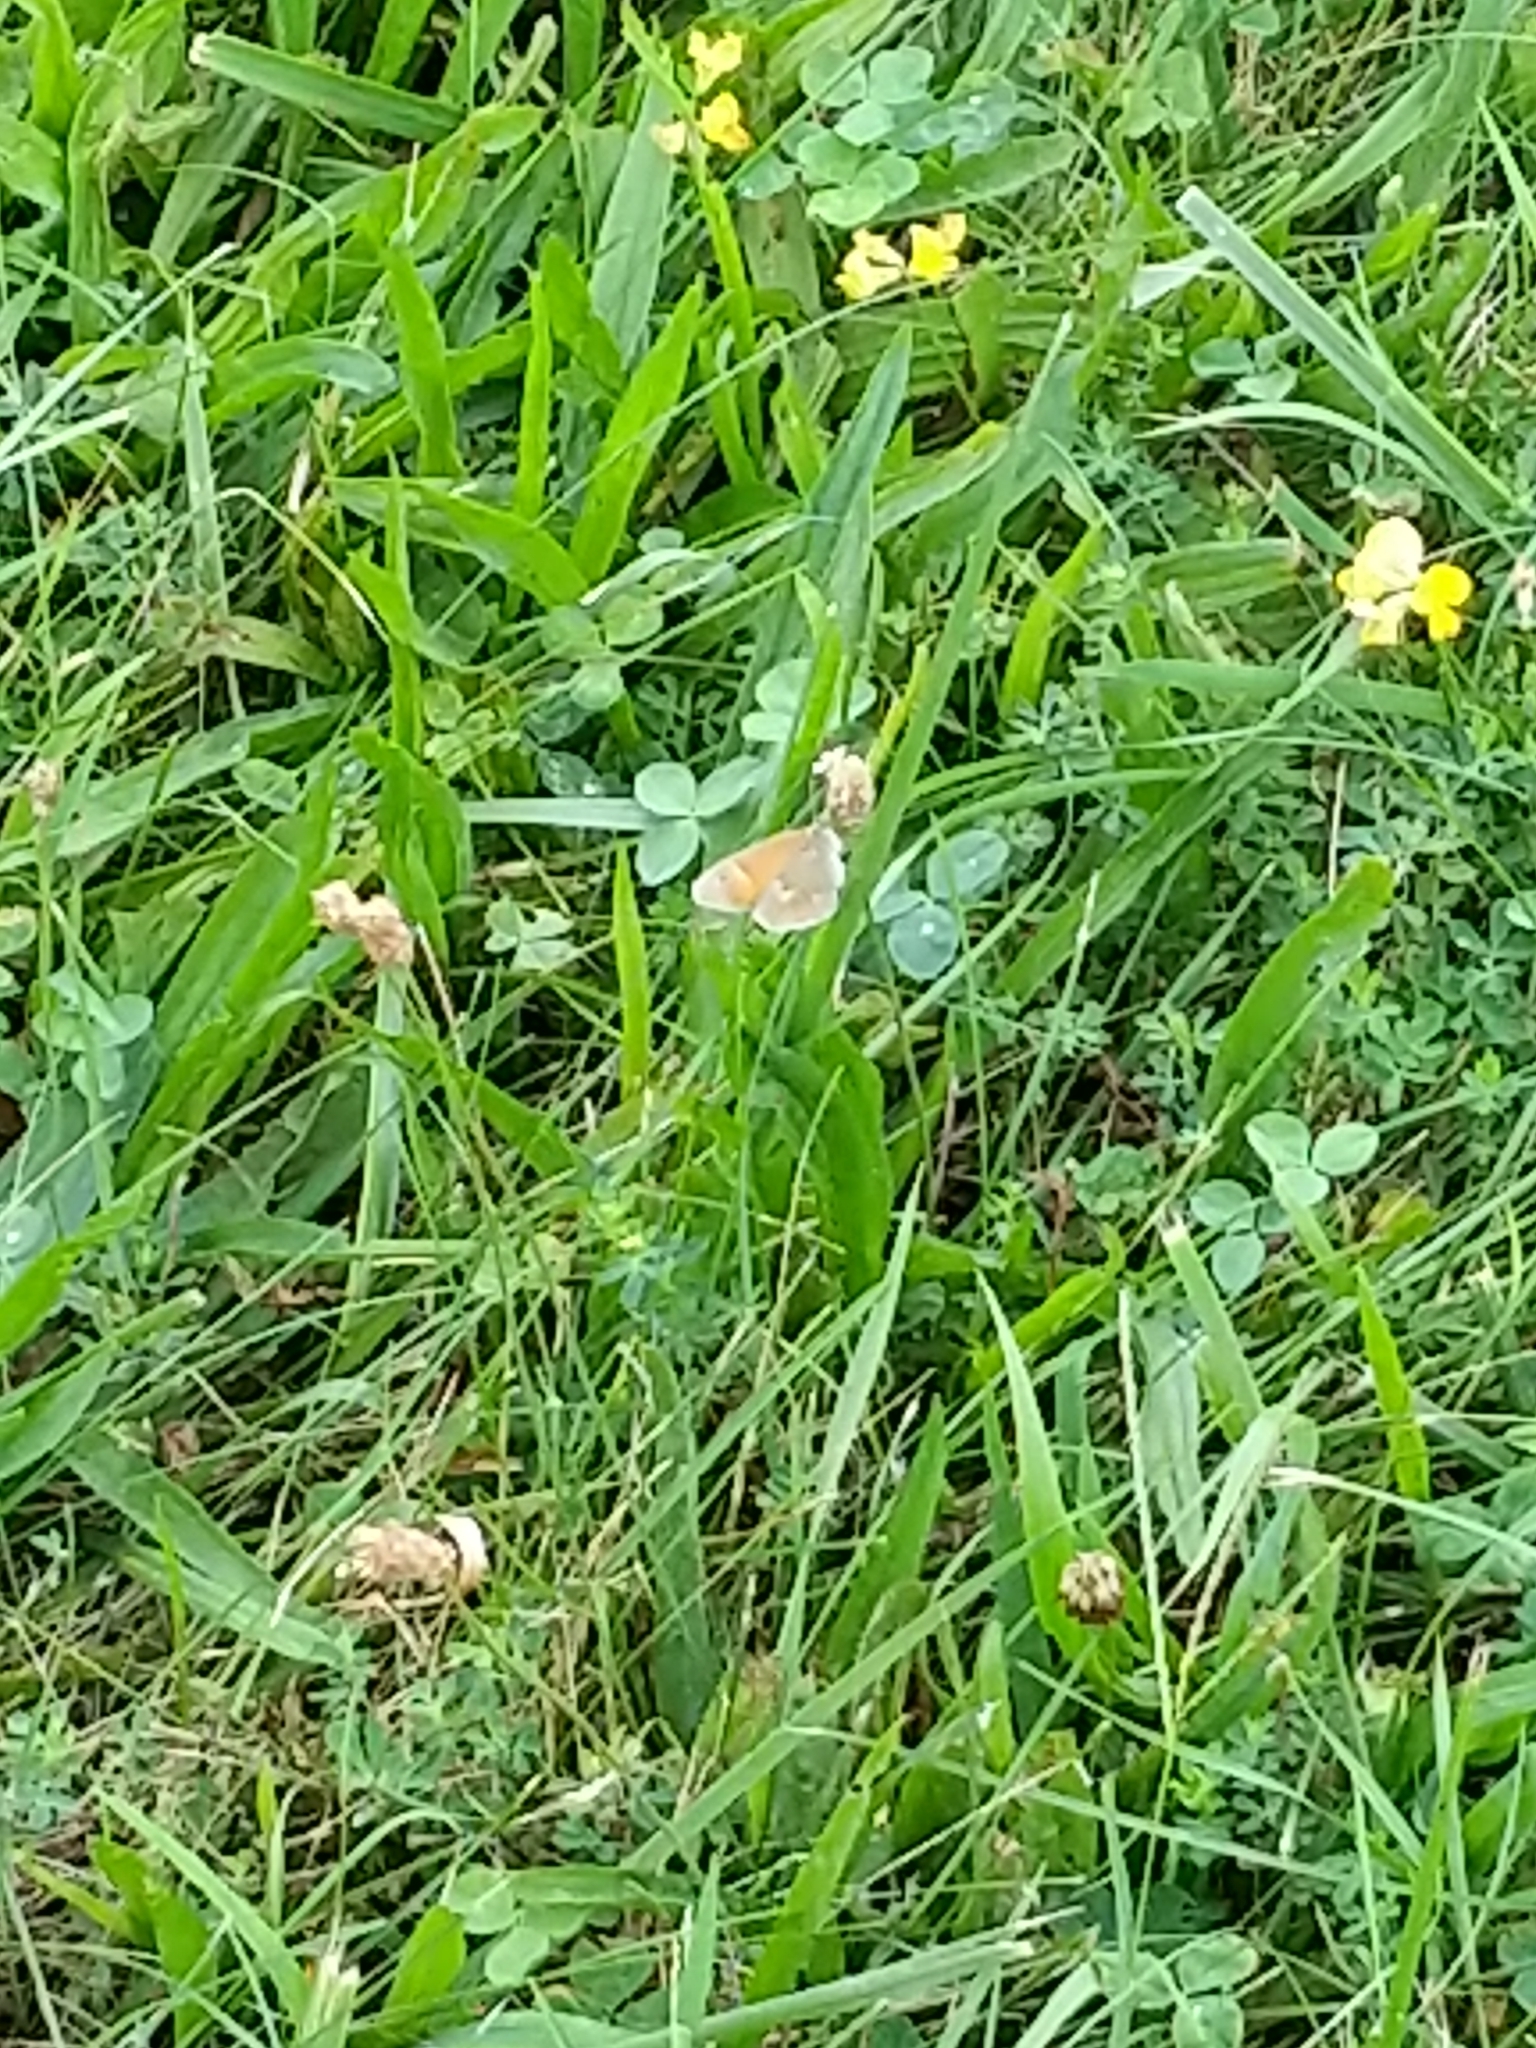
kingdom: Animalia
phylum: Arthropoda
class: Insecta
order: Lepidoptera
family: Nymphalidae
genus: Coenonympha
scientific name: Coenonympha california
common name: Common ringlet
